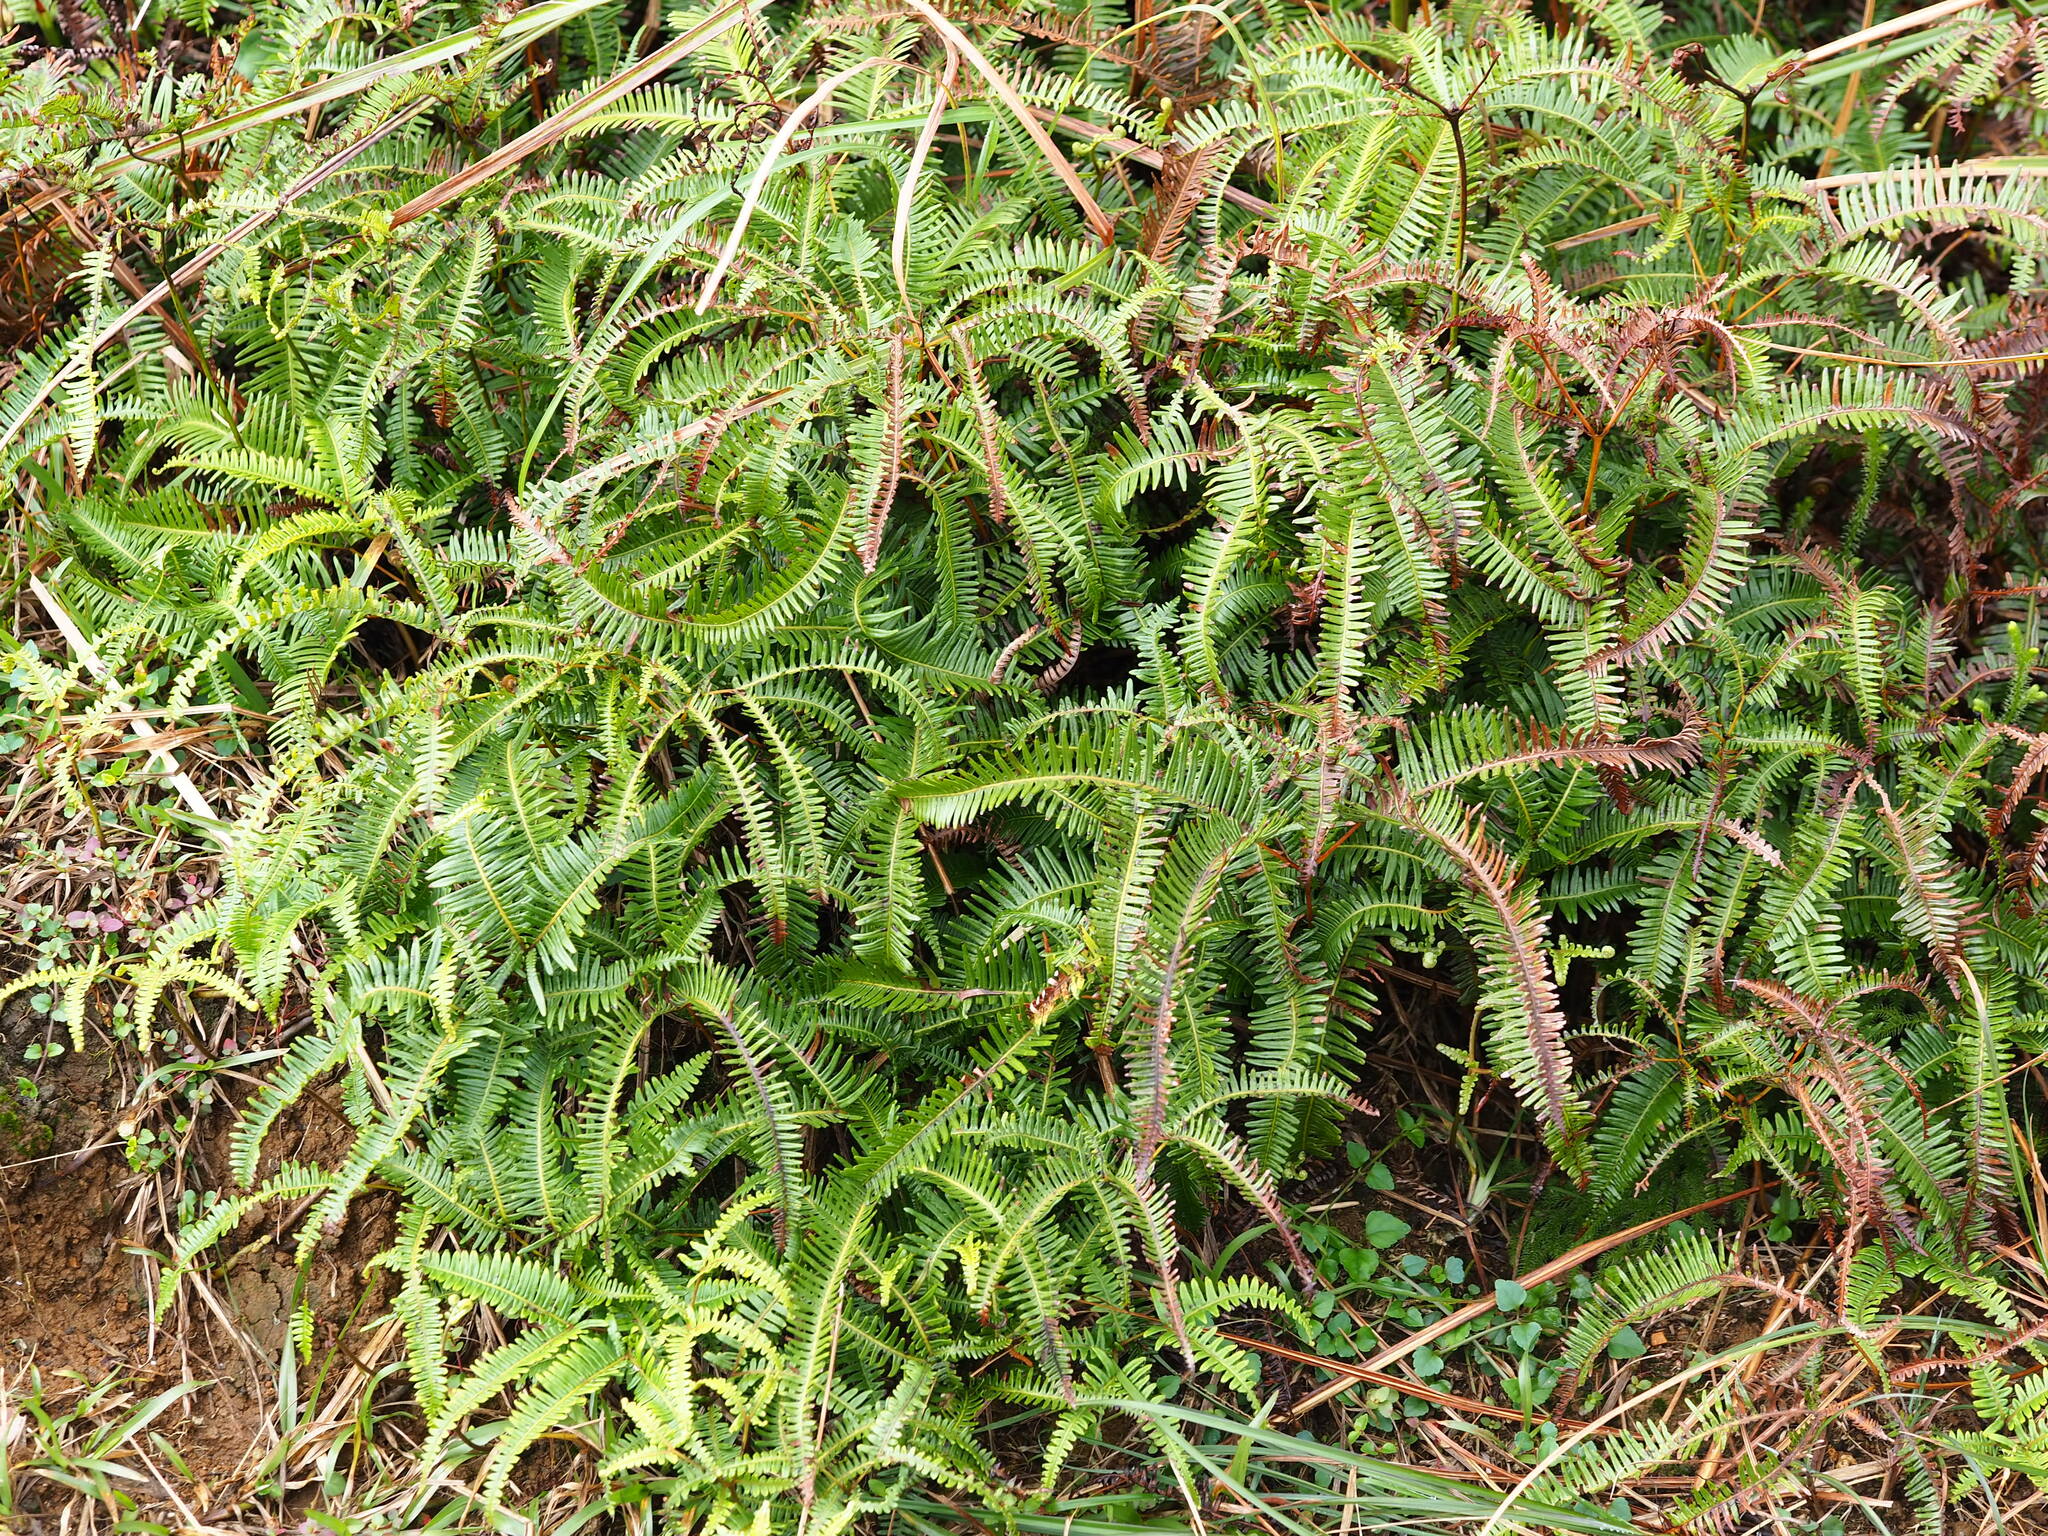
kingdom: Plantae
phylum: Tracheophyta
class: Polypodiopsida
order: Gleicheniales
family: Gleicheniaceae
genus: Dicranopteris
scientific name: Dicranopteris linearis
